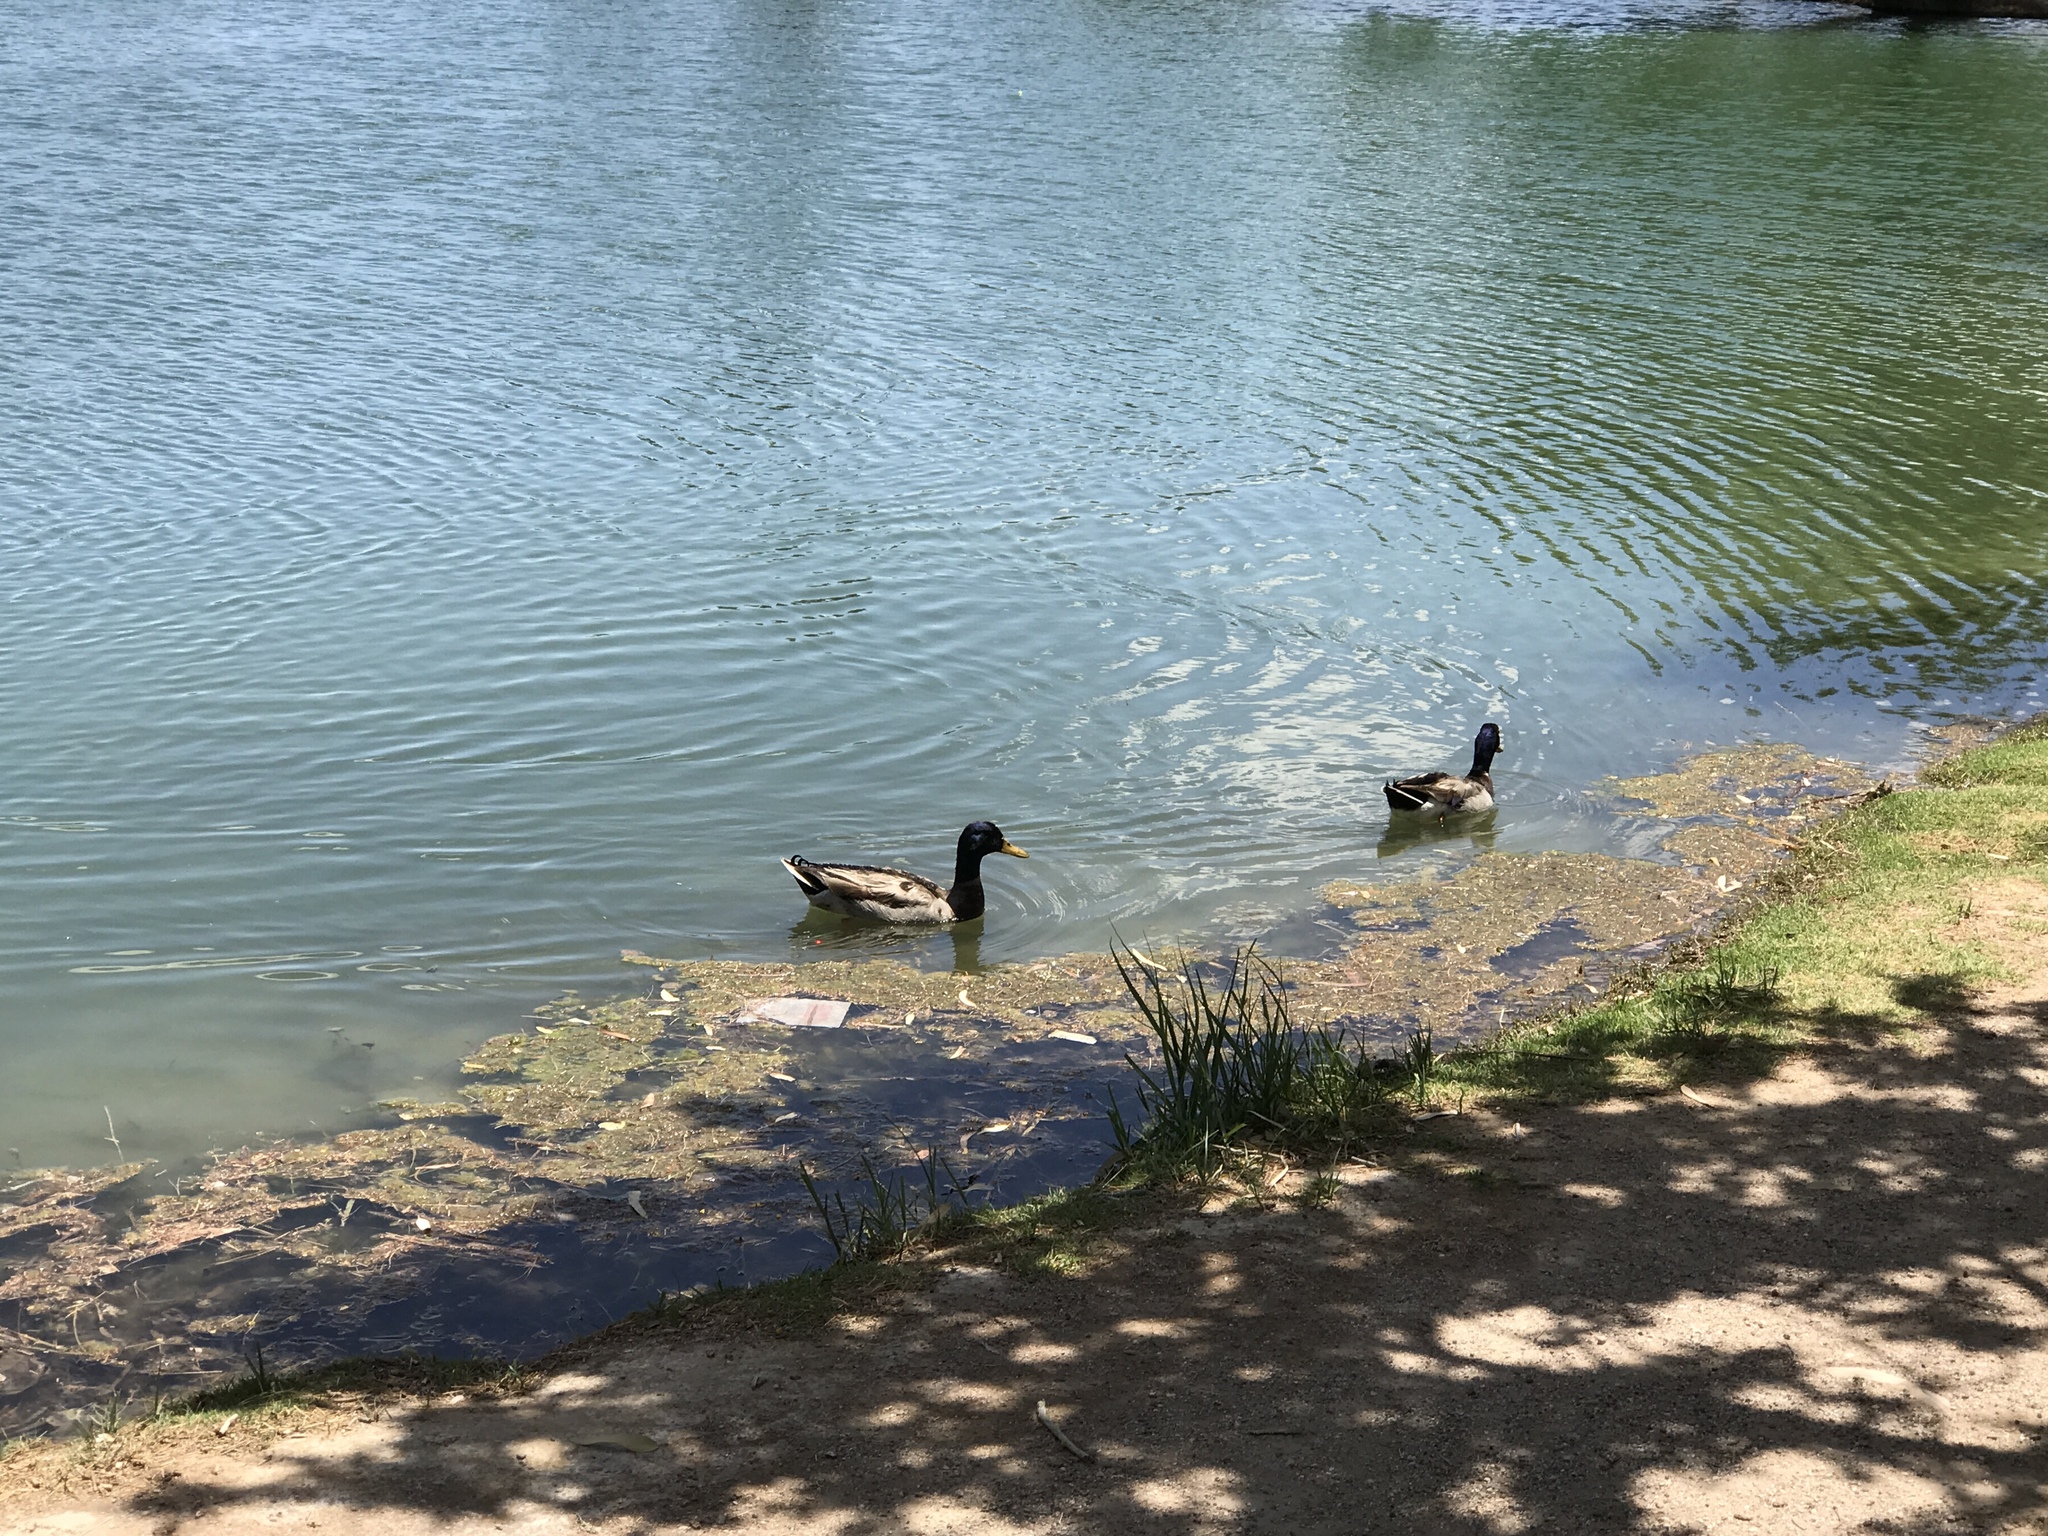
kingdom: Animalia
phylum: Chordata
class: Aves
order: Anseriformes
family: Anatidae
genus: Anas
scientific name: Anas platyrhynchos
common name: Mallard
